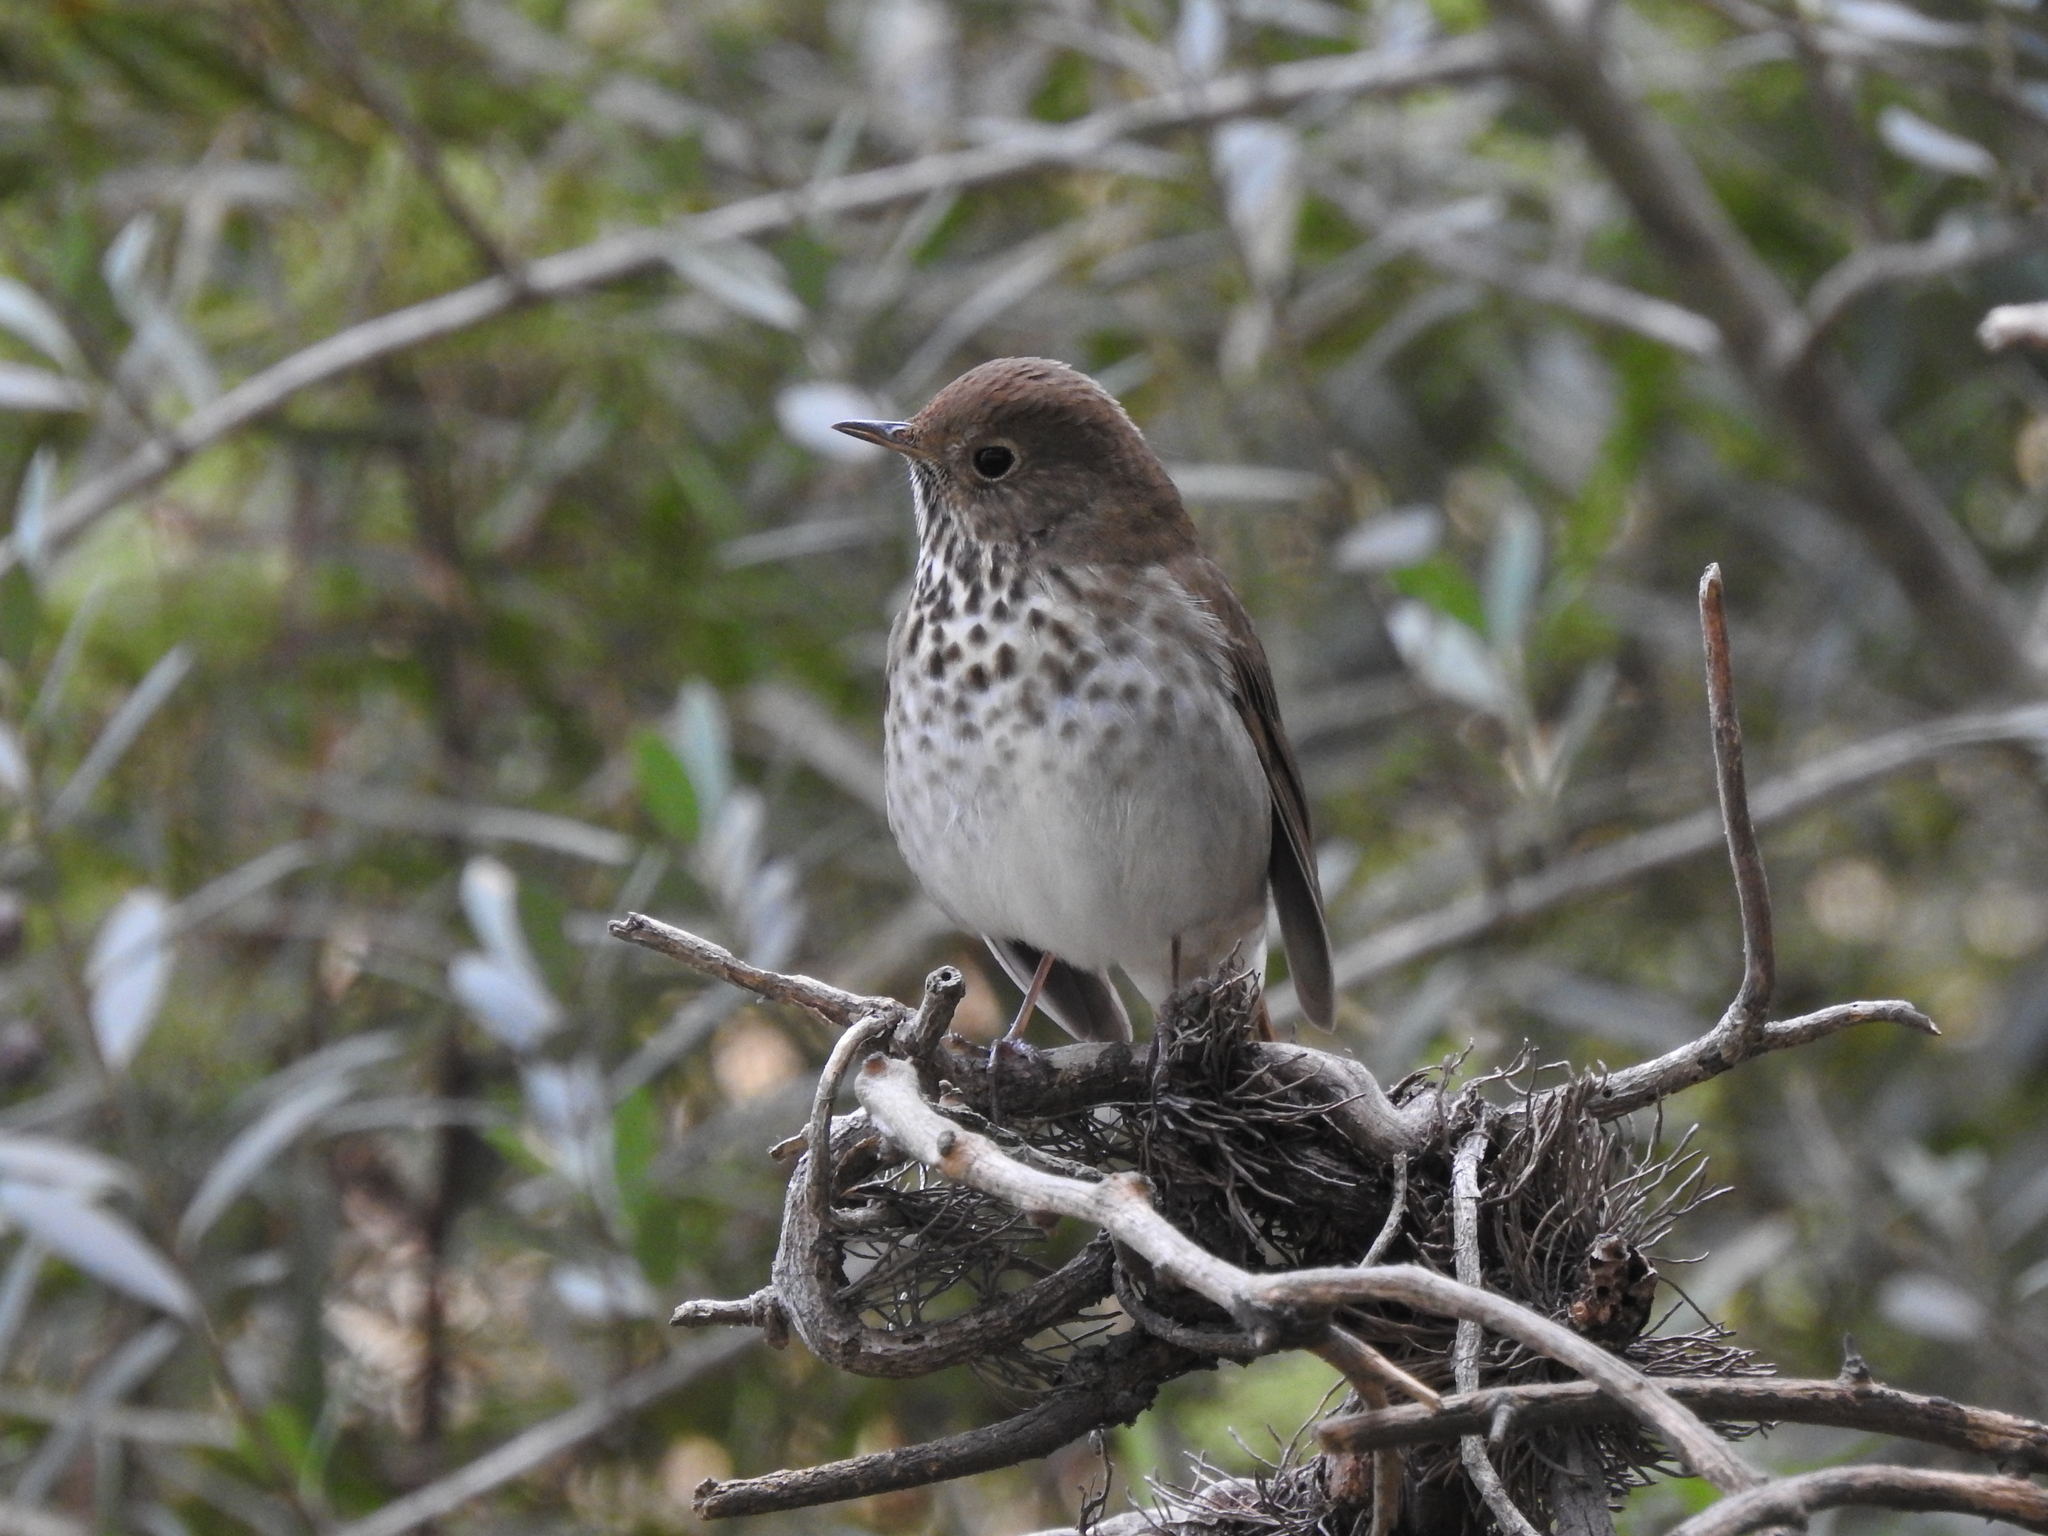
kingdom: Animalia
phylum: Chordata
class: Aves
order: Passeriformes
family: Turdidae
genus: Catharus
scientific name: Catharus guttatus
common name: Hermit thrush
